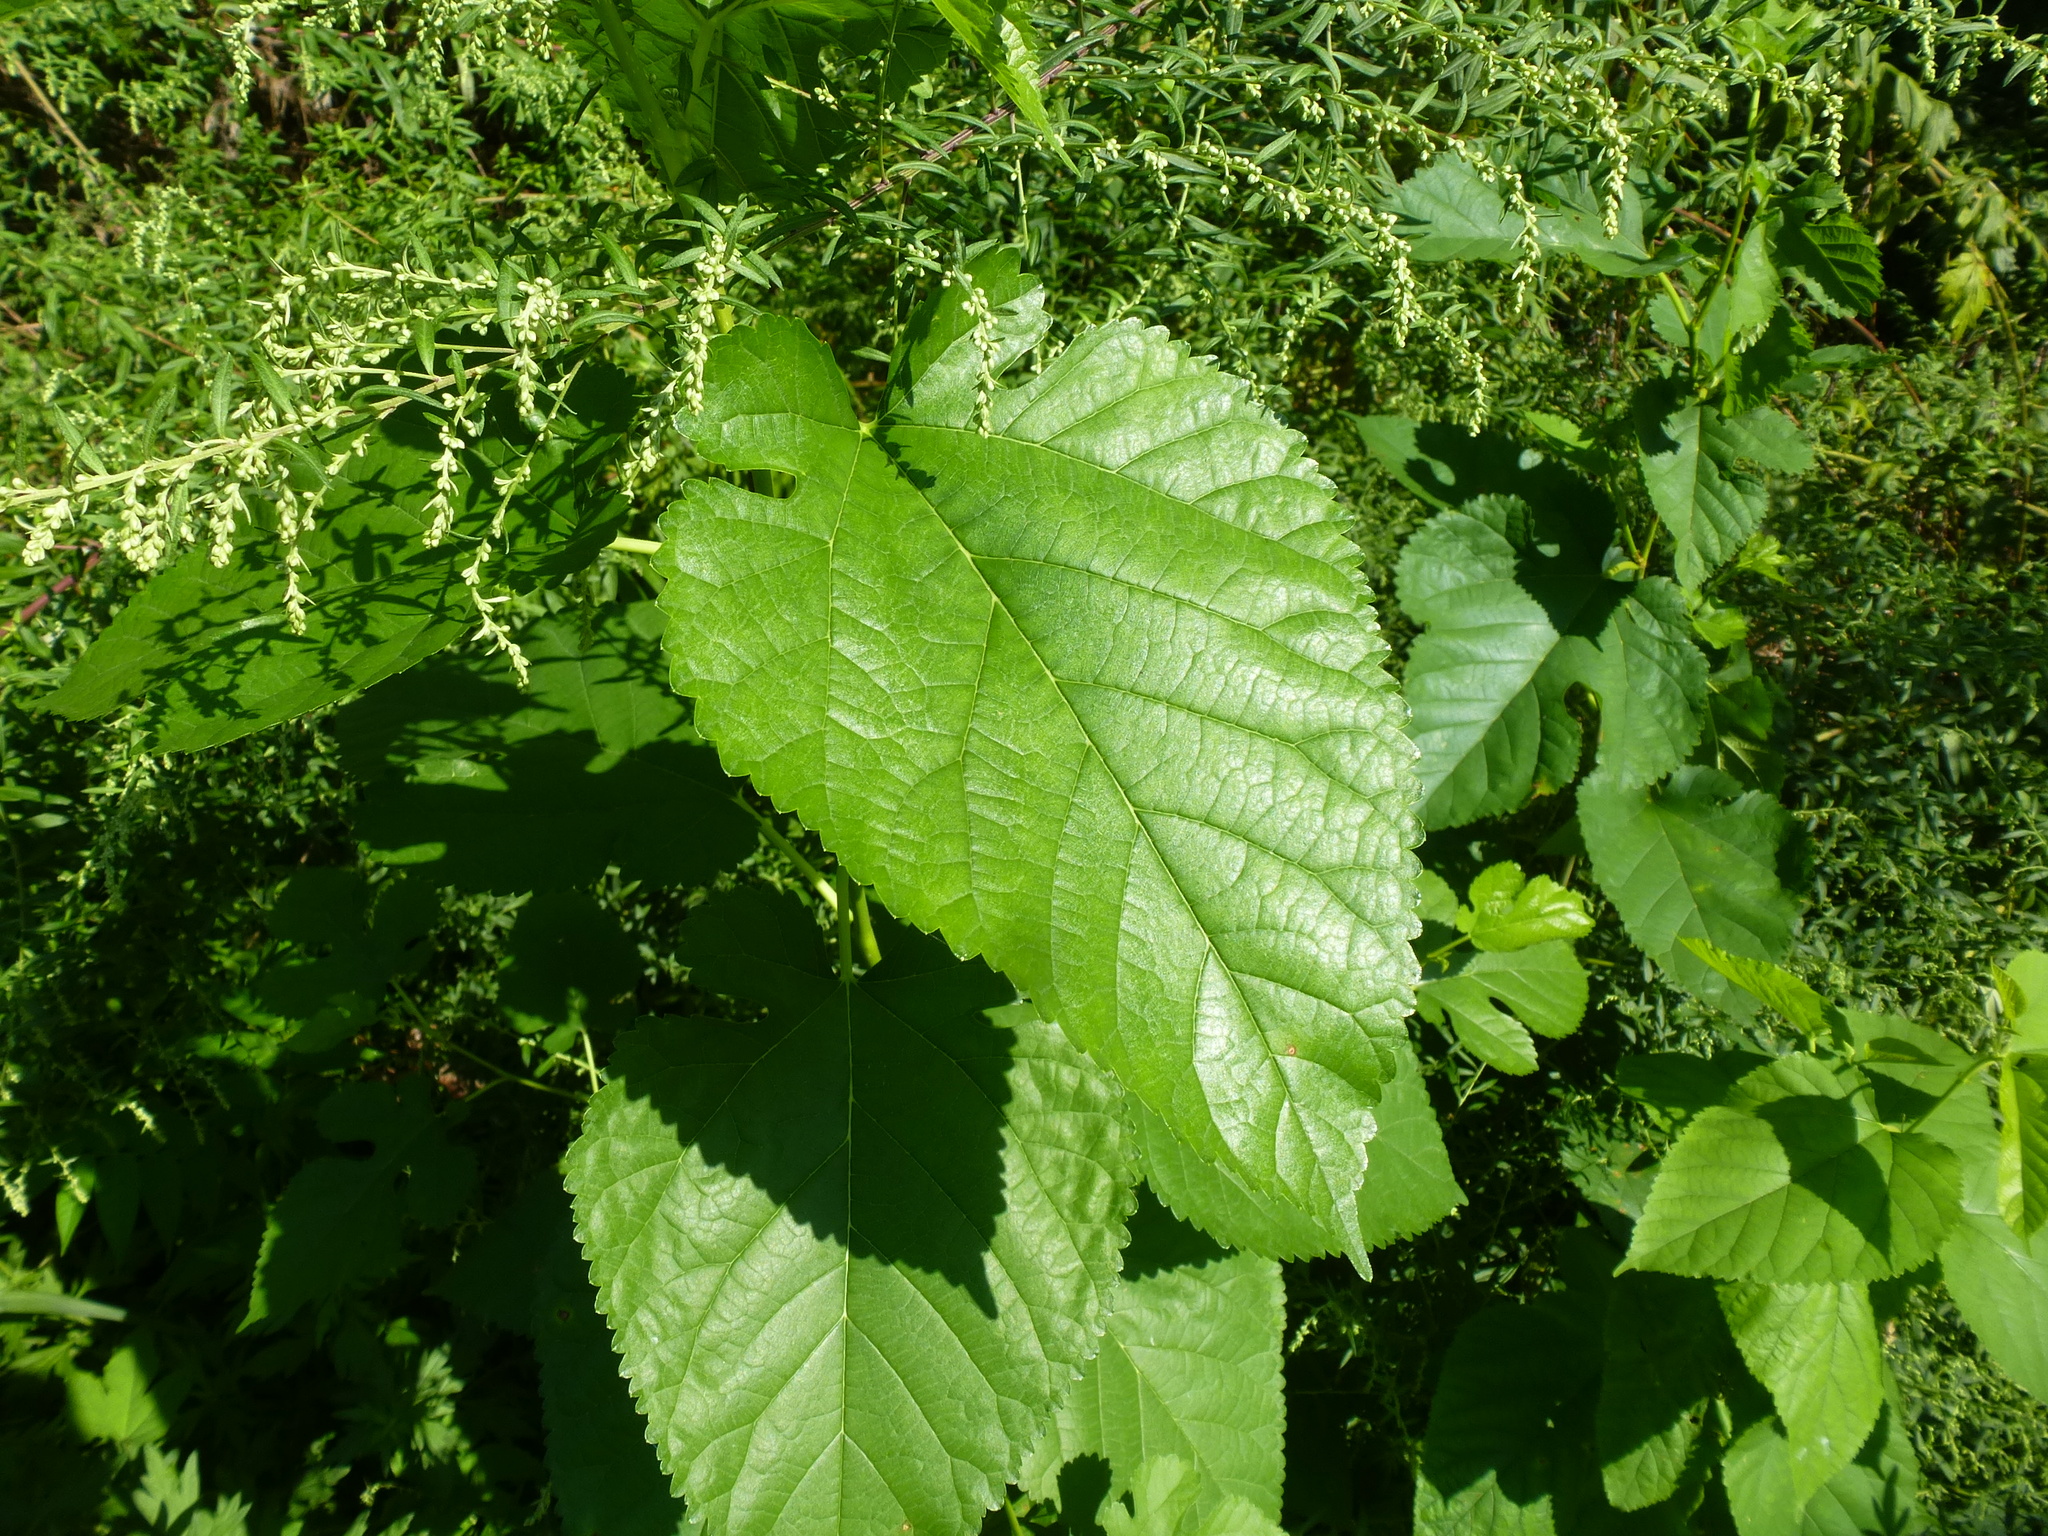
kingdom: Plantae
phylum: Tracheophyta
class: Magnoliopsida
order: Rosales
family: Moraceae
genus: Morus
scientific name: Morus alba
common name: White mulberry
